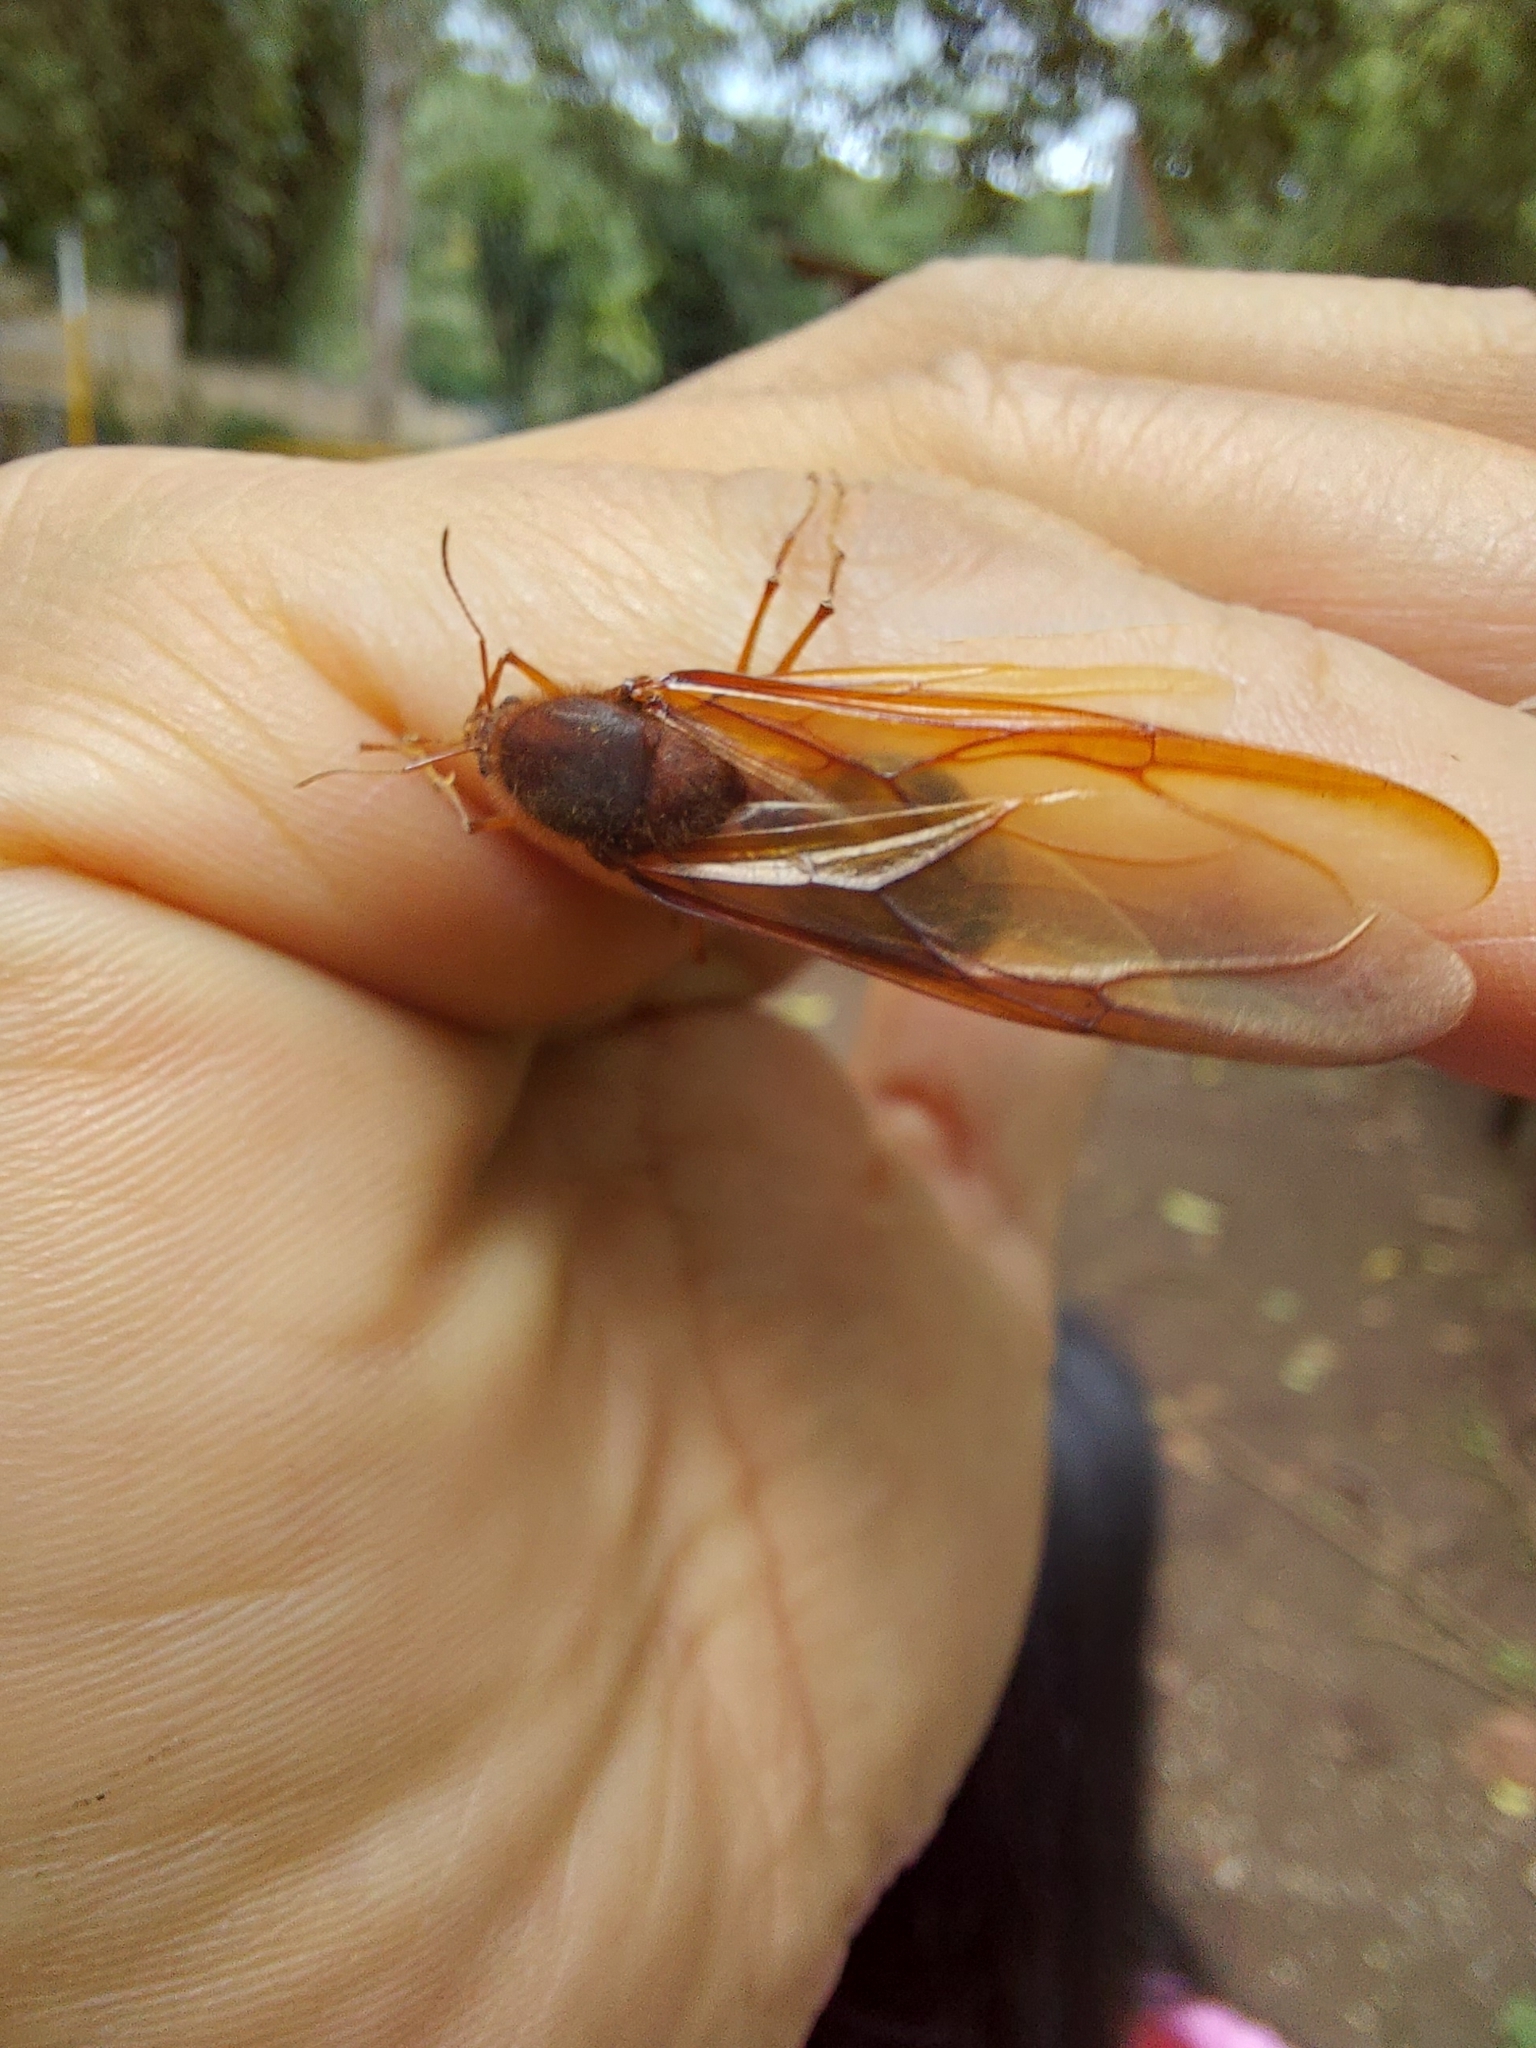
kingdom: Animalia
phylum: Arthropoda
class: Insecta
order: Hymenoptera
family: Formicidae
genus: Atta
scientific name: Atta mexicana
